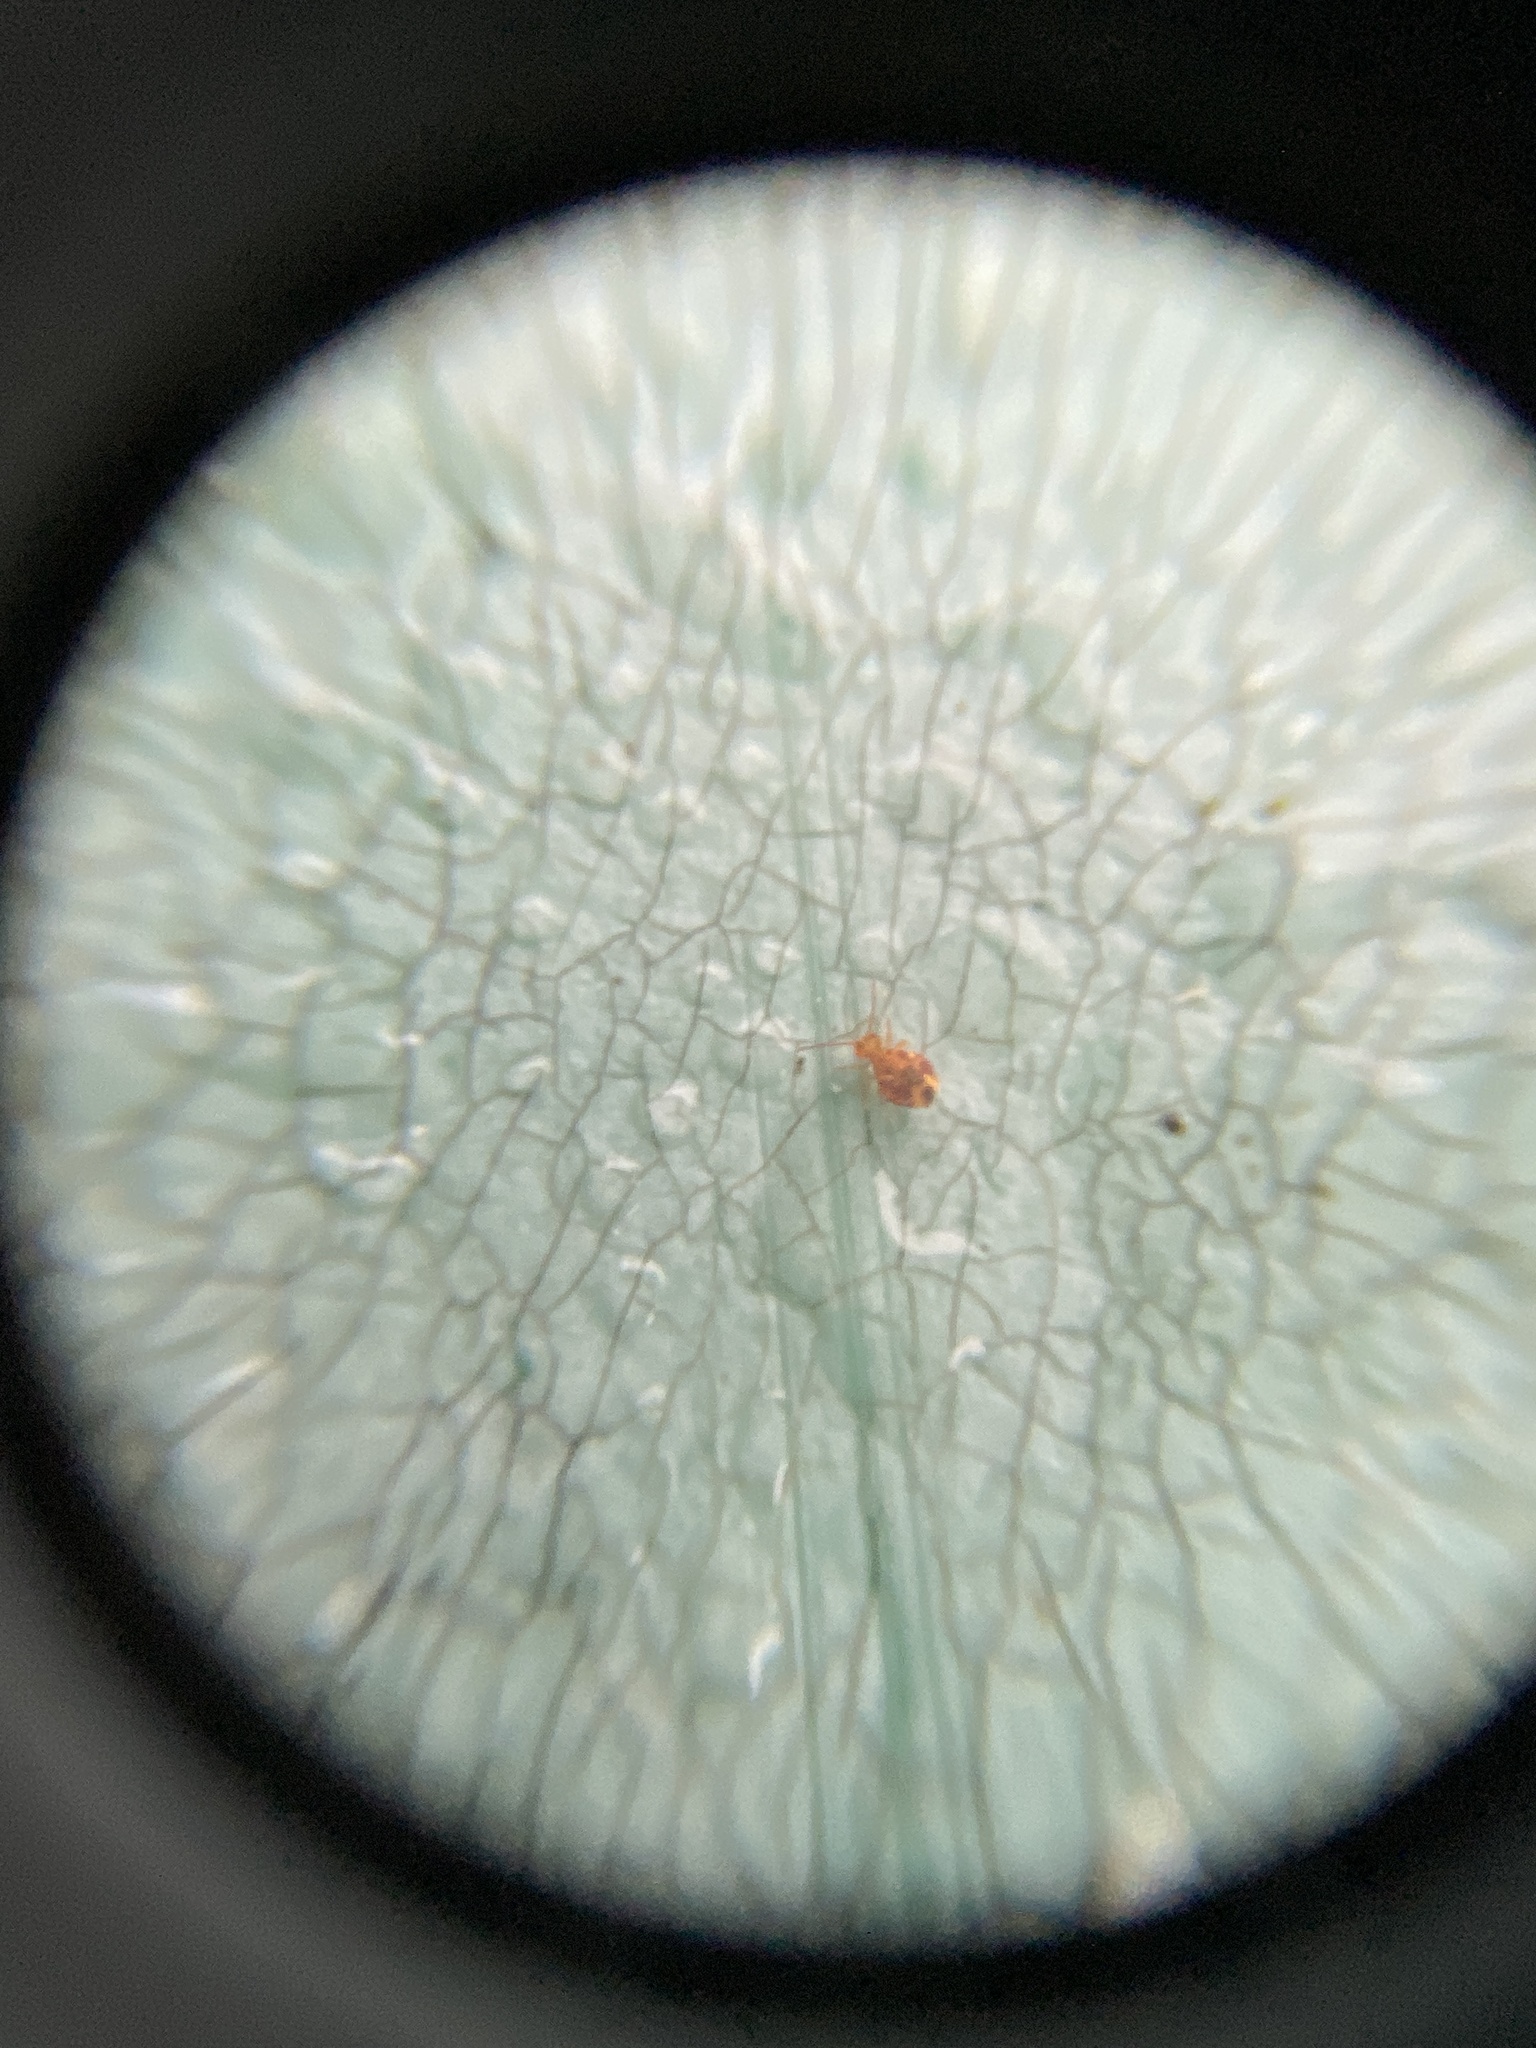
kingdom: Animalia
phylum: Arthropoda
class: Collembola
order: Symphypleona
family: Dicyrtomidae
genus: Dicyrtomina
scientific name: Dicyrtomina ornata
